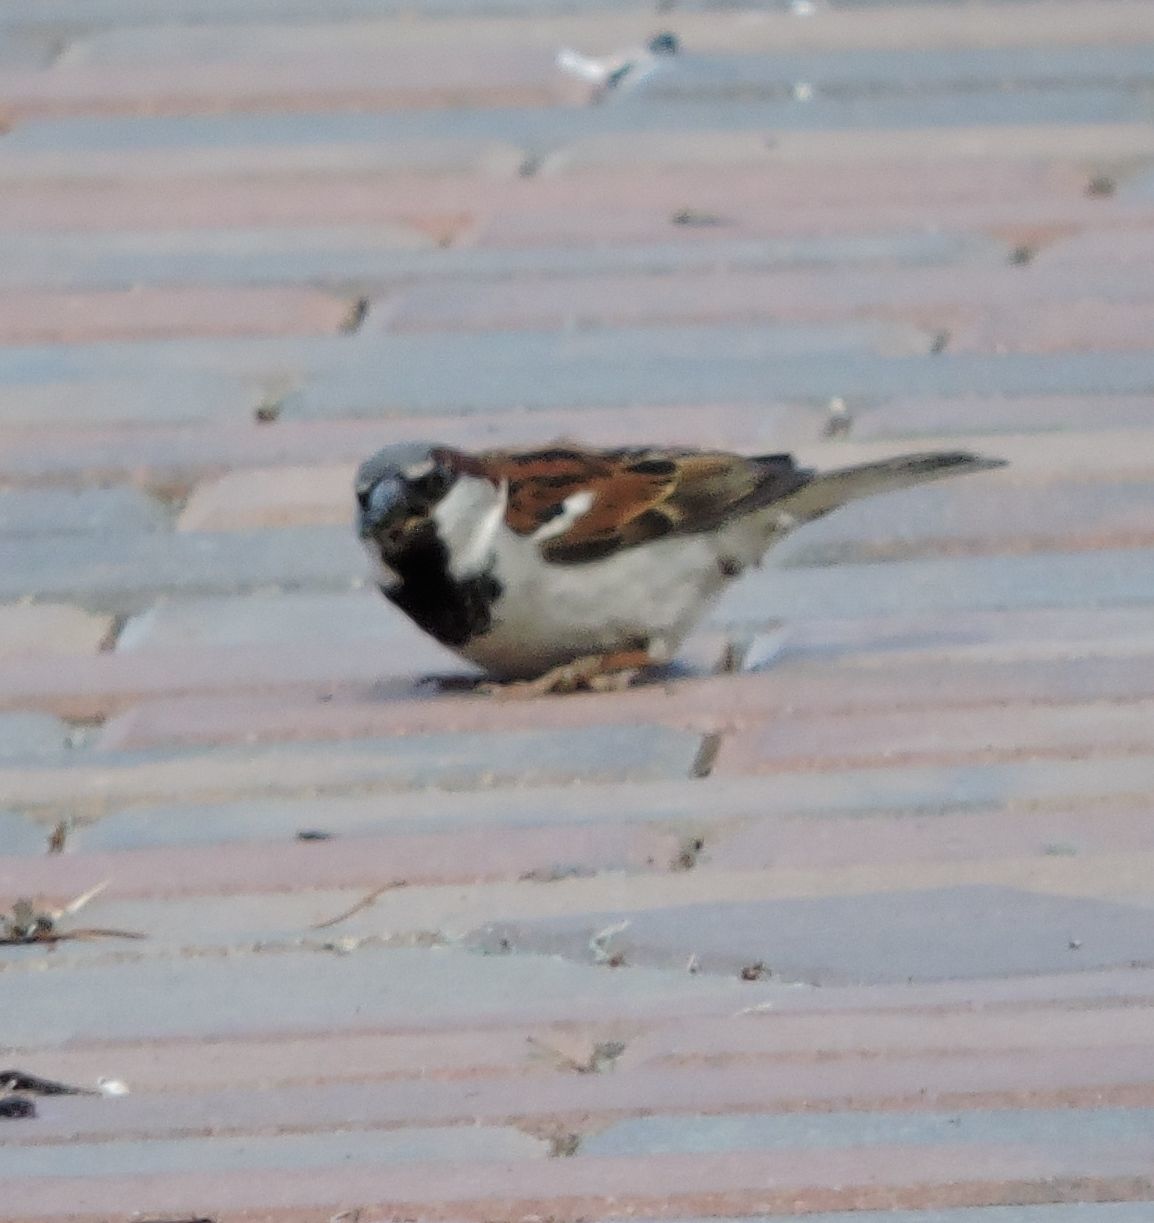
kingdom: Animalia
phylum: Chordata
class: Aves
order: Passeriformes
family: Passeridae
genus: Passer
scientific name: Passer domesticus
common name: House sparrow
